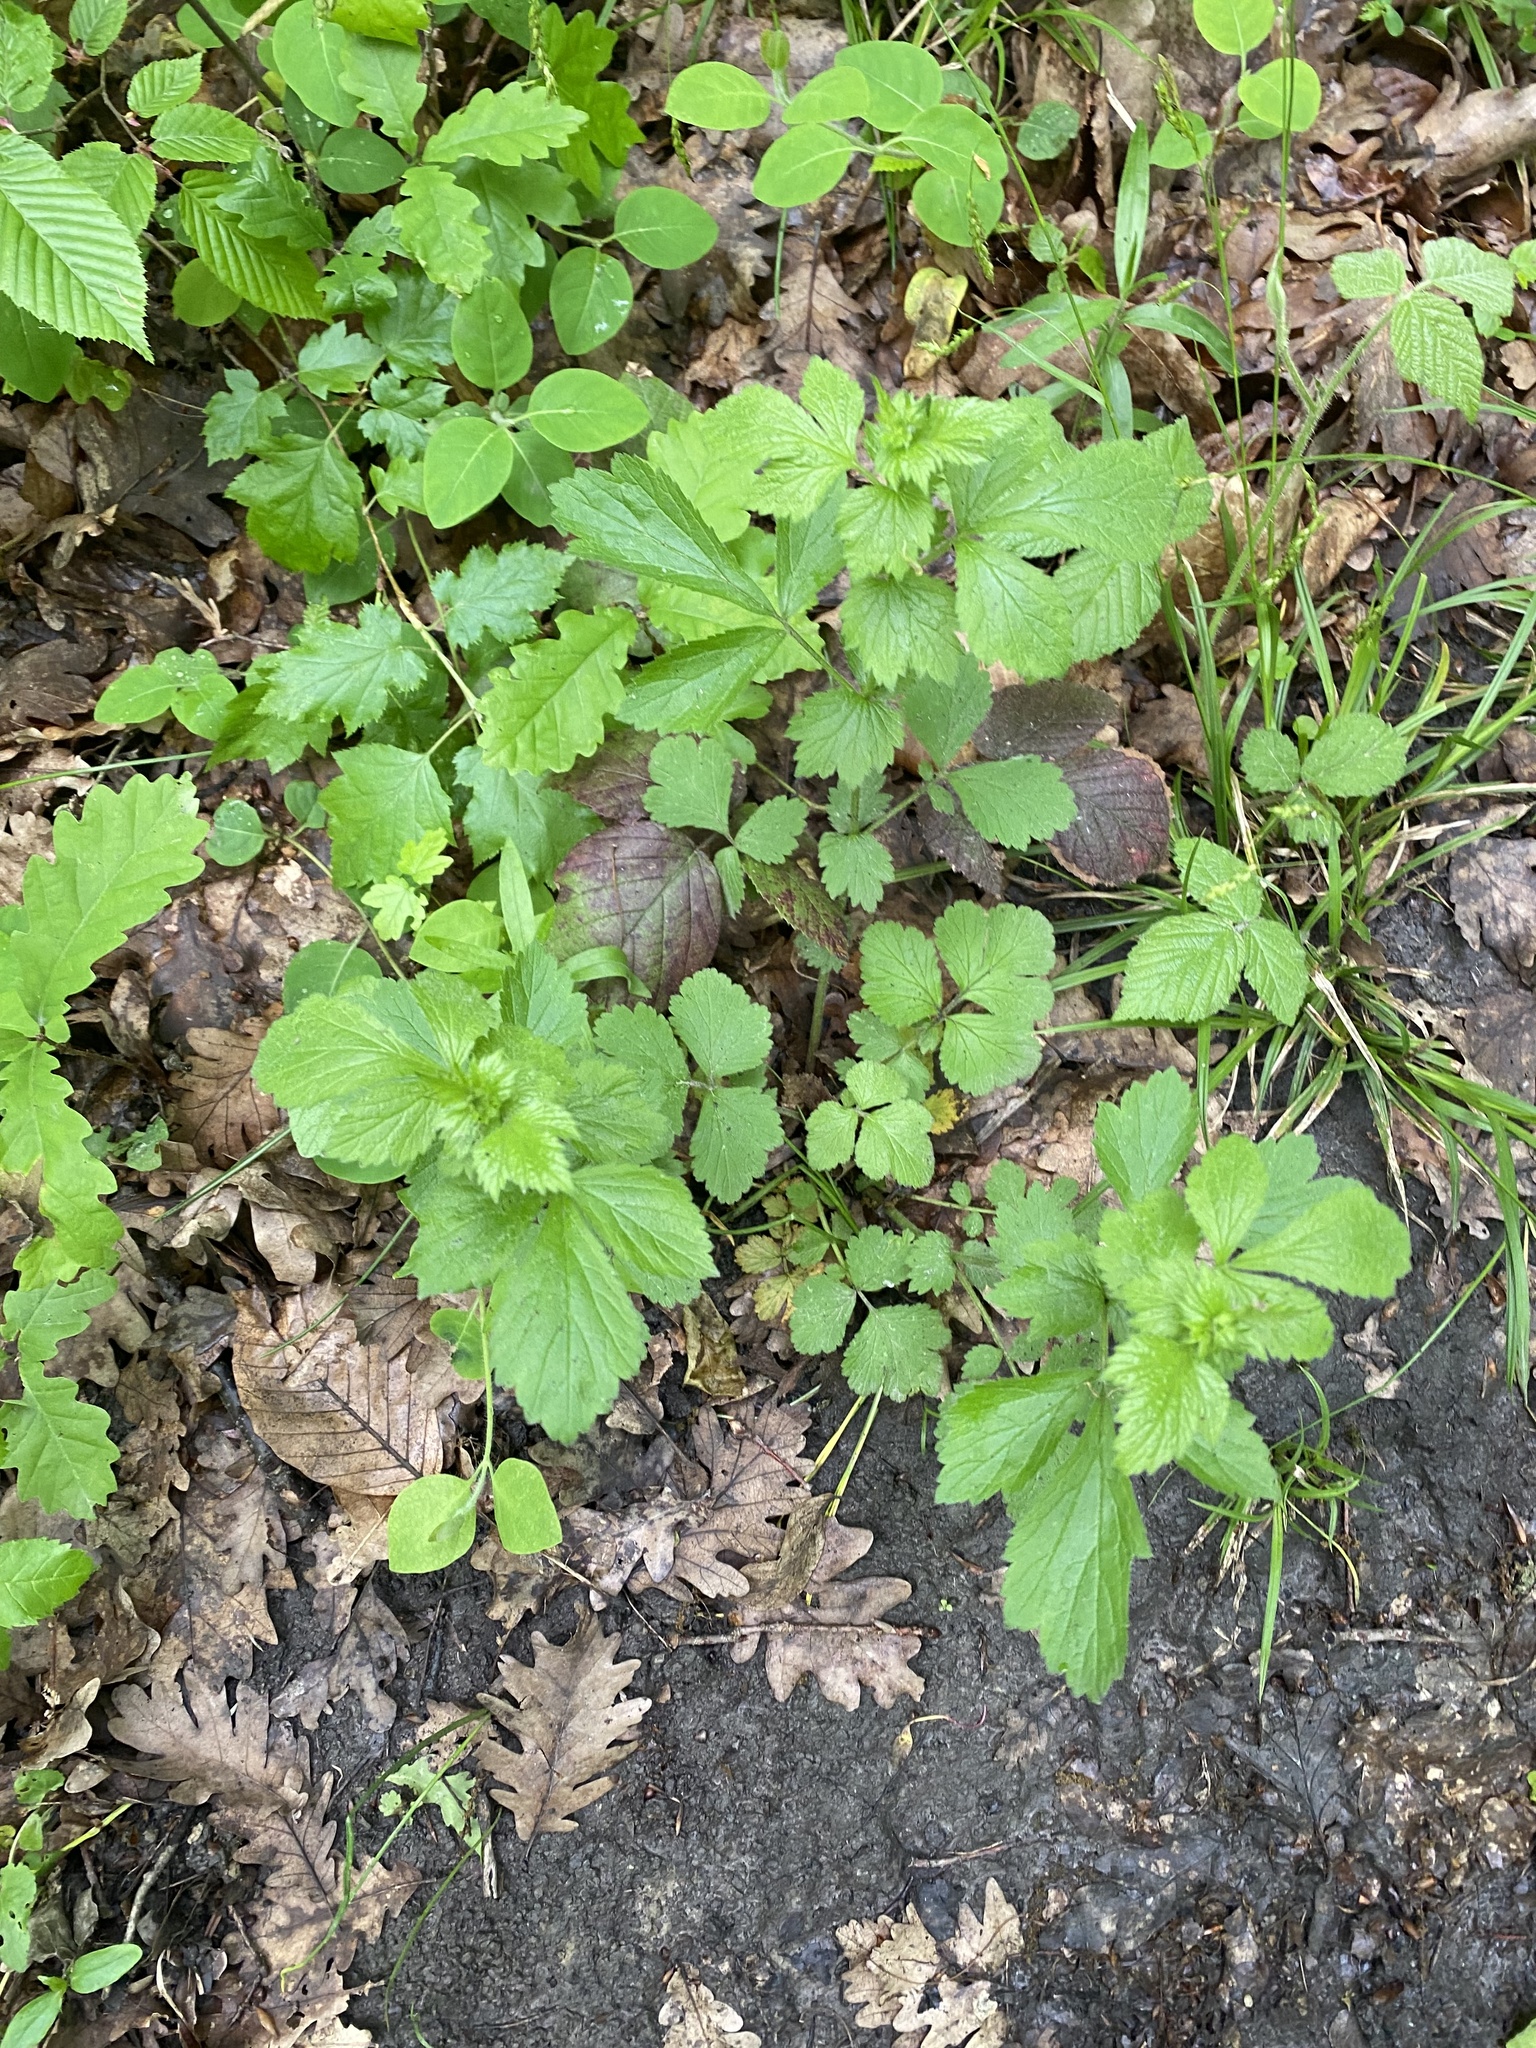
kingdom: Plantae
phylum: Tracheophyta
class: Magnoliopsida
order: Rosales
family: Rosaceae
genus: Geum
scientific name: Geum urbanum
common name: Wood avens
